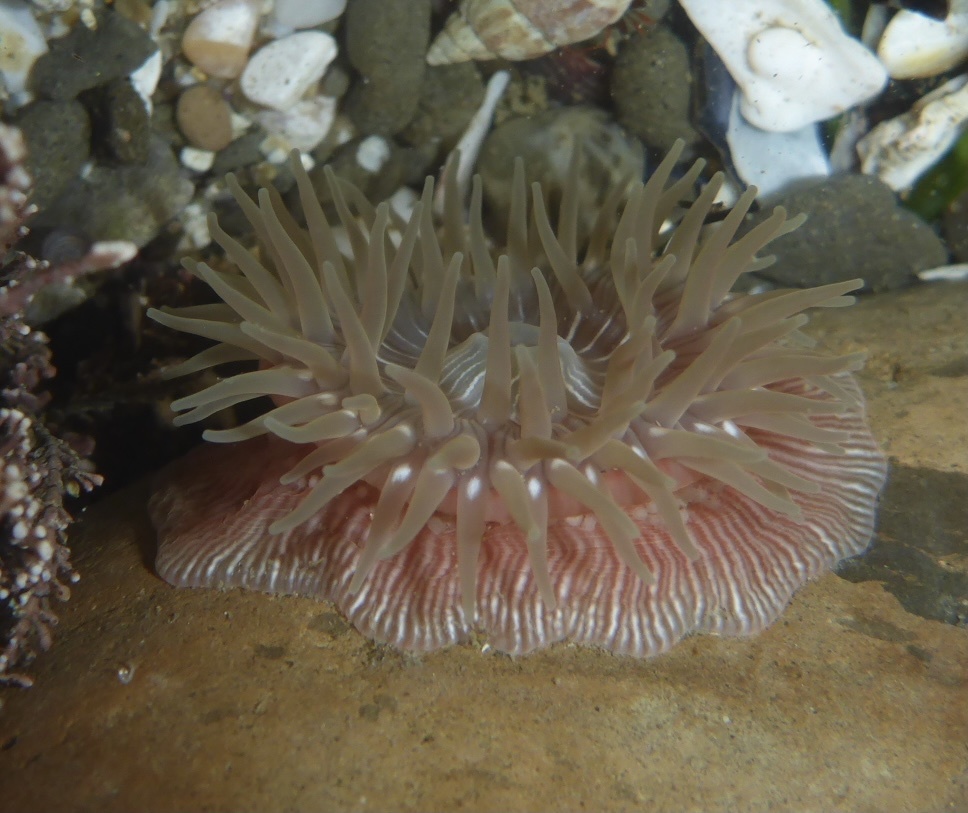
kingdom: Animalia
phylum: Cnidaria
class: Anthozoa
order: Actiniaria
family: Actiniidae
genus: Epiactis
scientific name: Epiactis prolifera
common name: Brooding anemone
